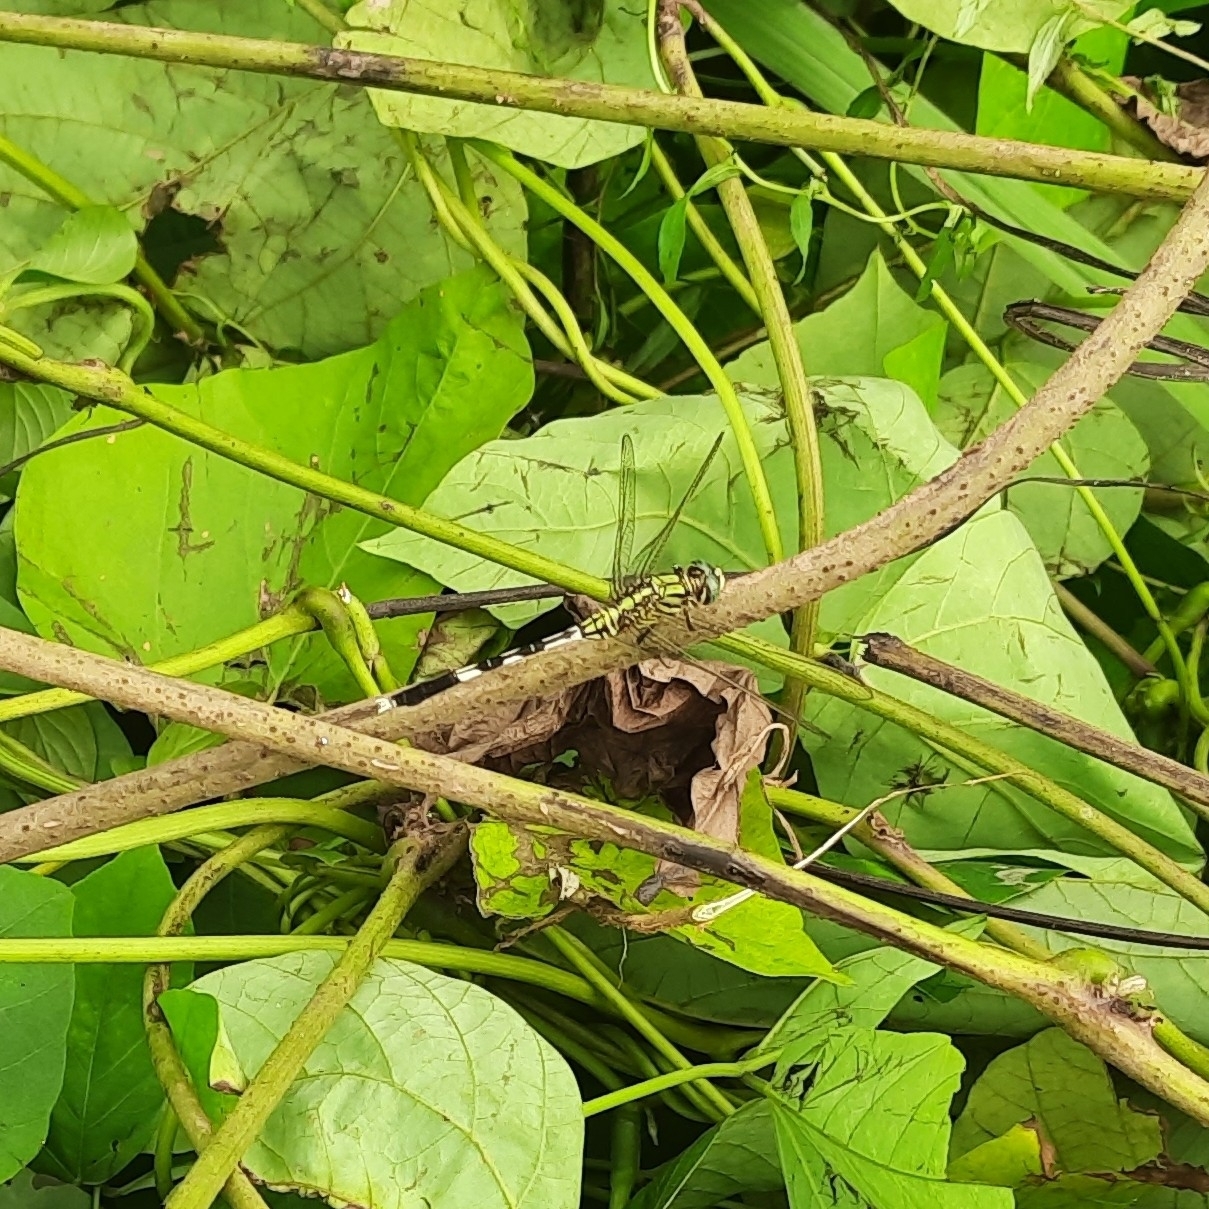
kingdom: Animalia
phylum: Arthropoda
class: Insecta
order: Odonata
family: Libellulidae
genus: Orthetrum
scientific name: Orthetrum sabina
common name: Slender skimmer
